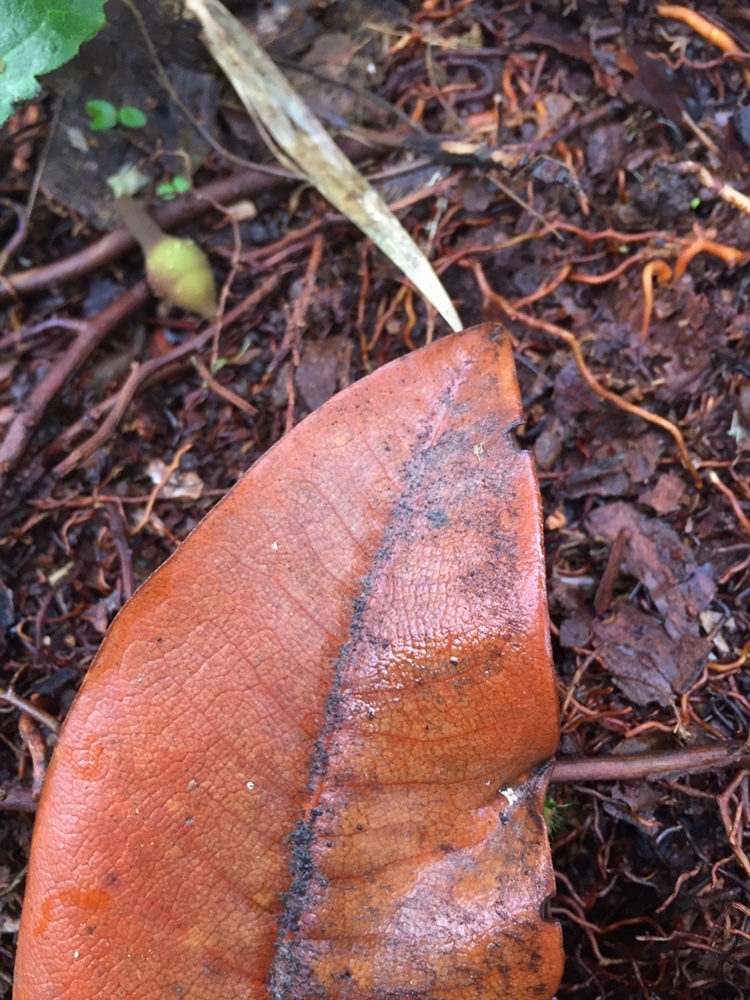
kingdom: Plantae
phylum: Tracheophyta
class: Magnoliopsida
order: Laurales
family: Lauraceae
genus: Andea
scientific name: Andea velutina
